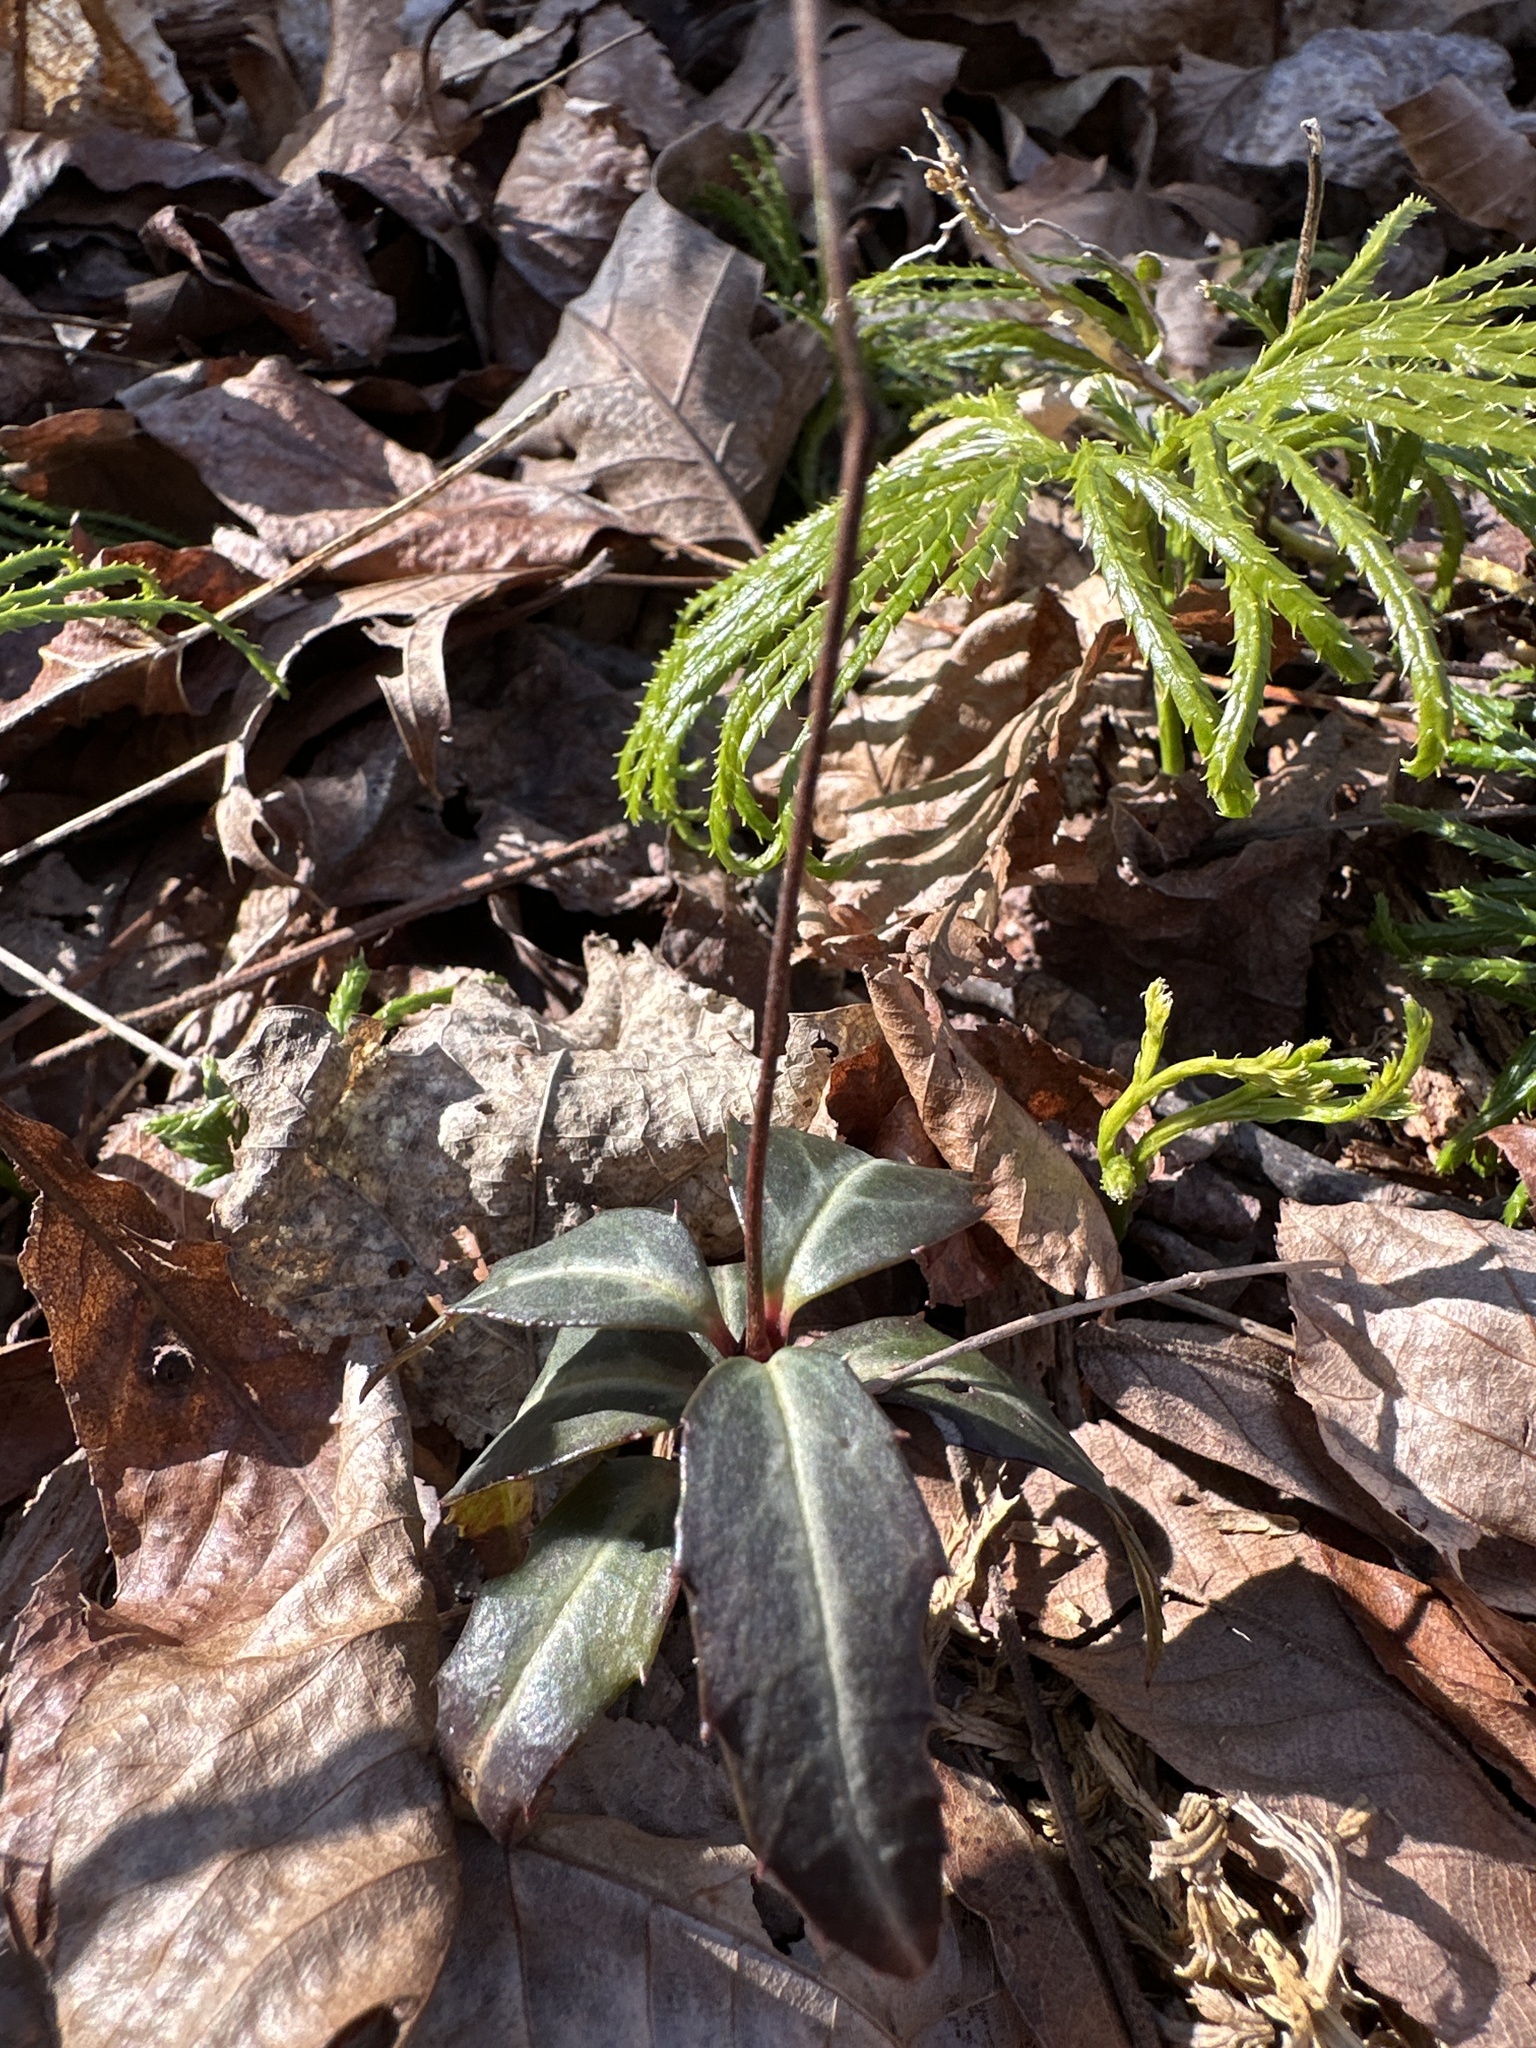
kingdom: Plantae
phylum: Tracheophyta
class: Magnoliopsida
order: Ericales
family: Ericaceae
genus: Chimaphila
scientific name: Chimaphila maculata
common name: Spotted pipsissewa
